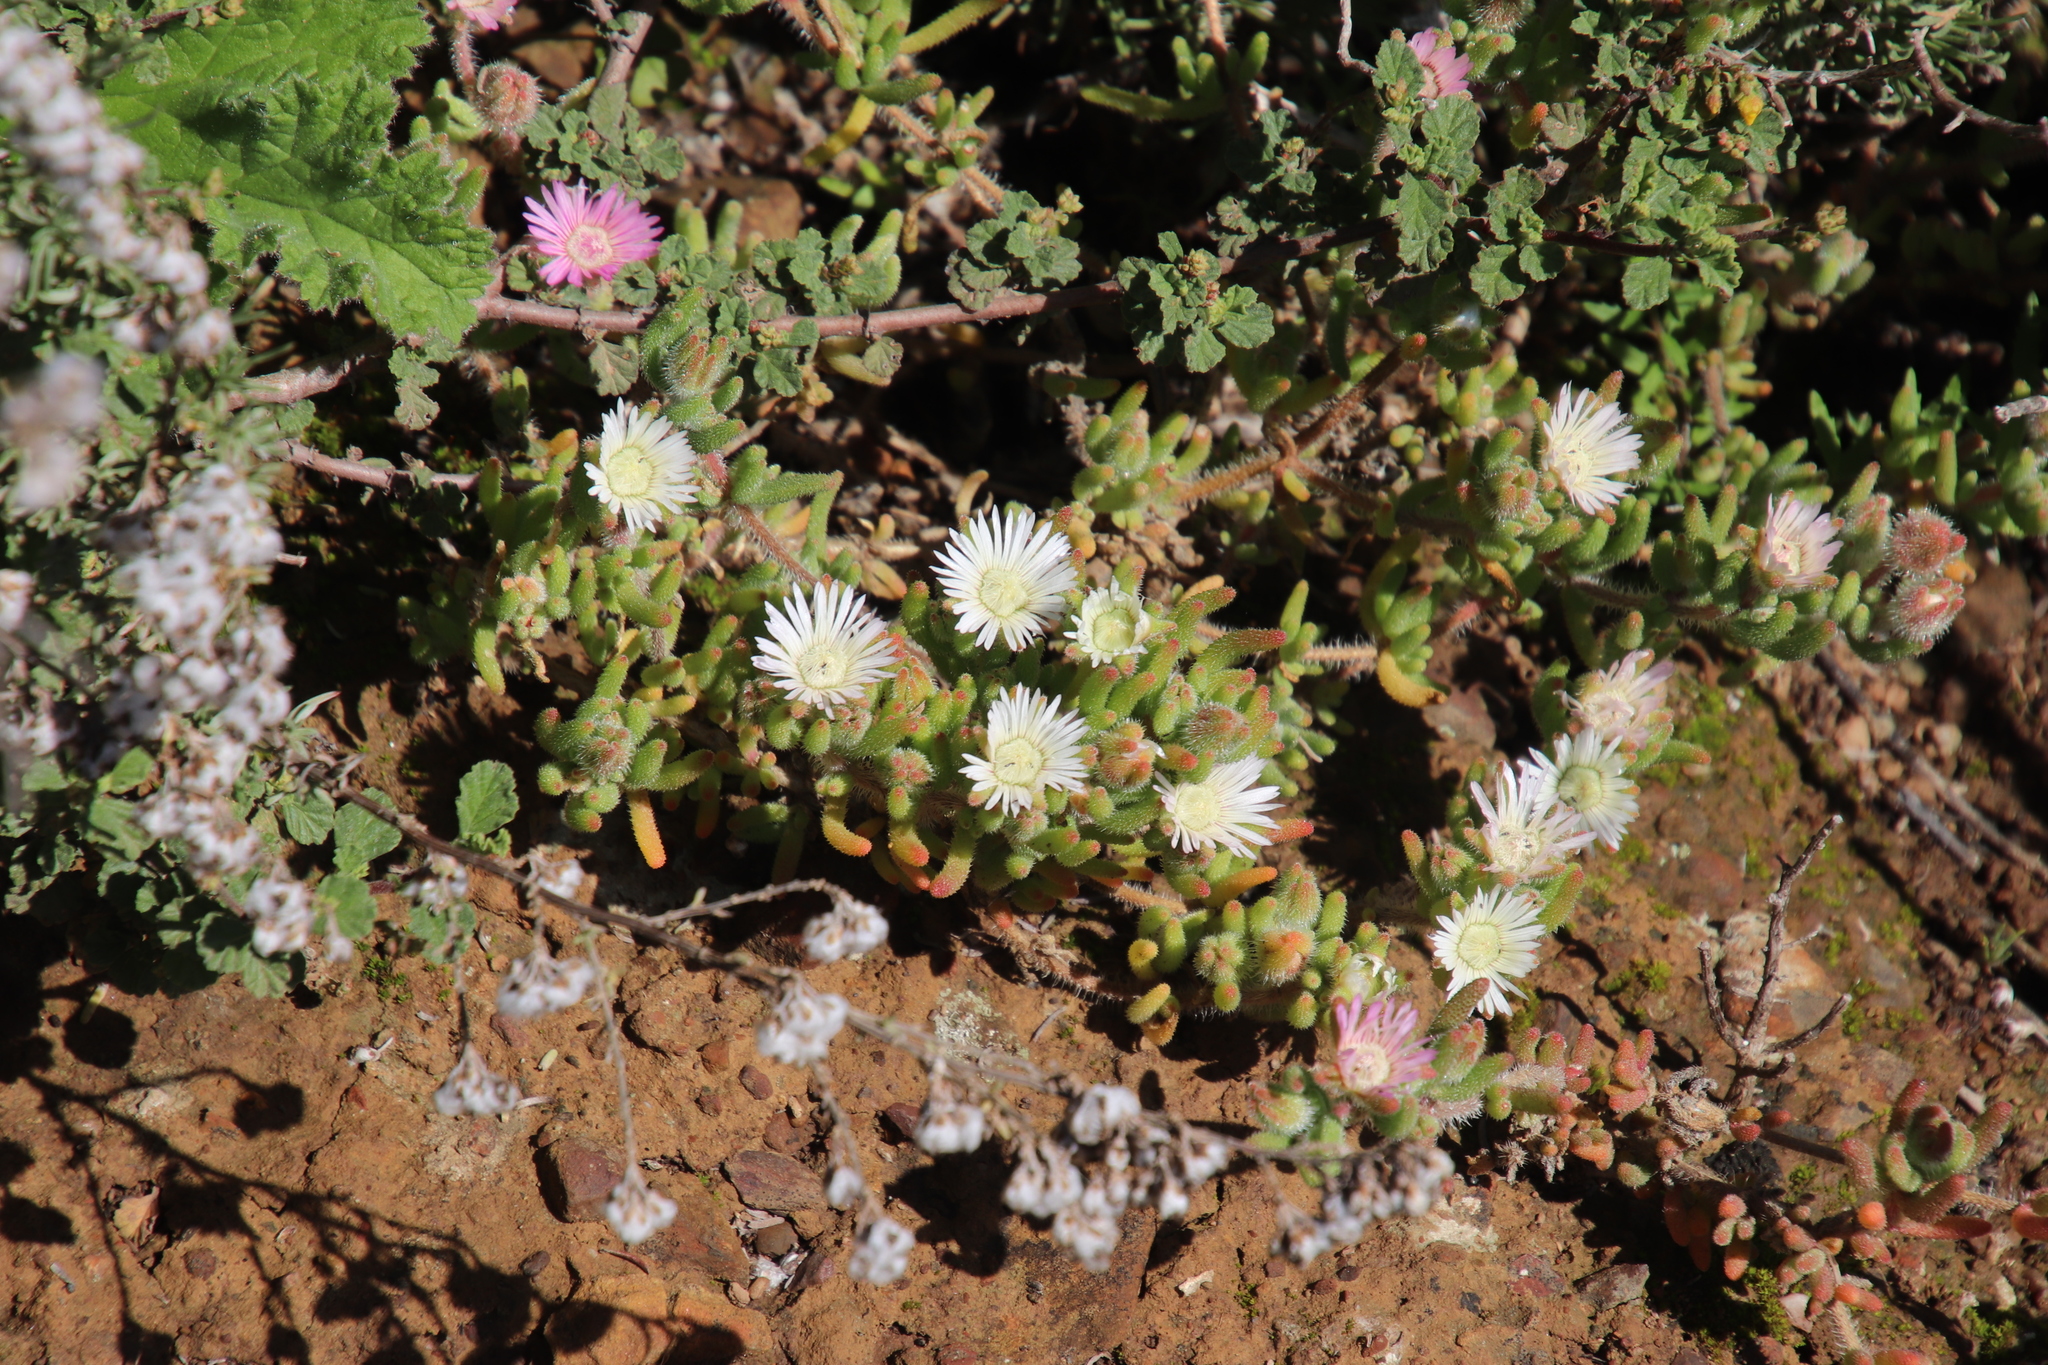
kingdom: Plantae
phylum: Tracheophyta
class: Magnoliopsida
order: Caryophyllales
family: Aizoaceae
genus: Drosanthemum
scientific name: Drosanthemum hispifolium
